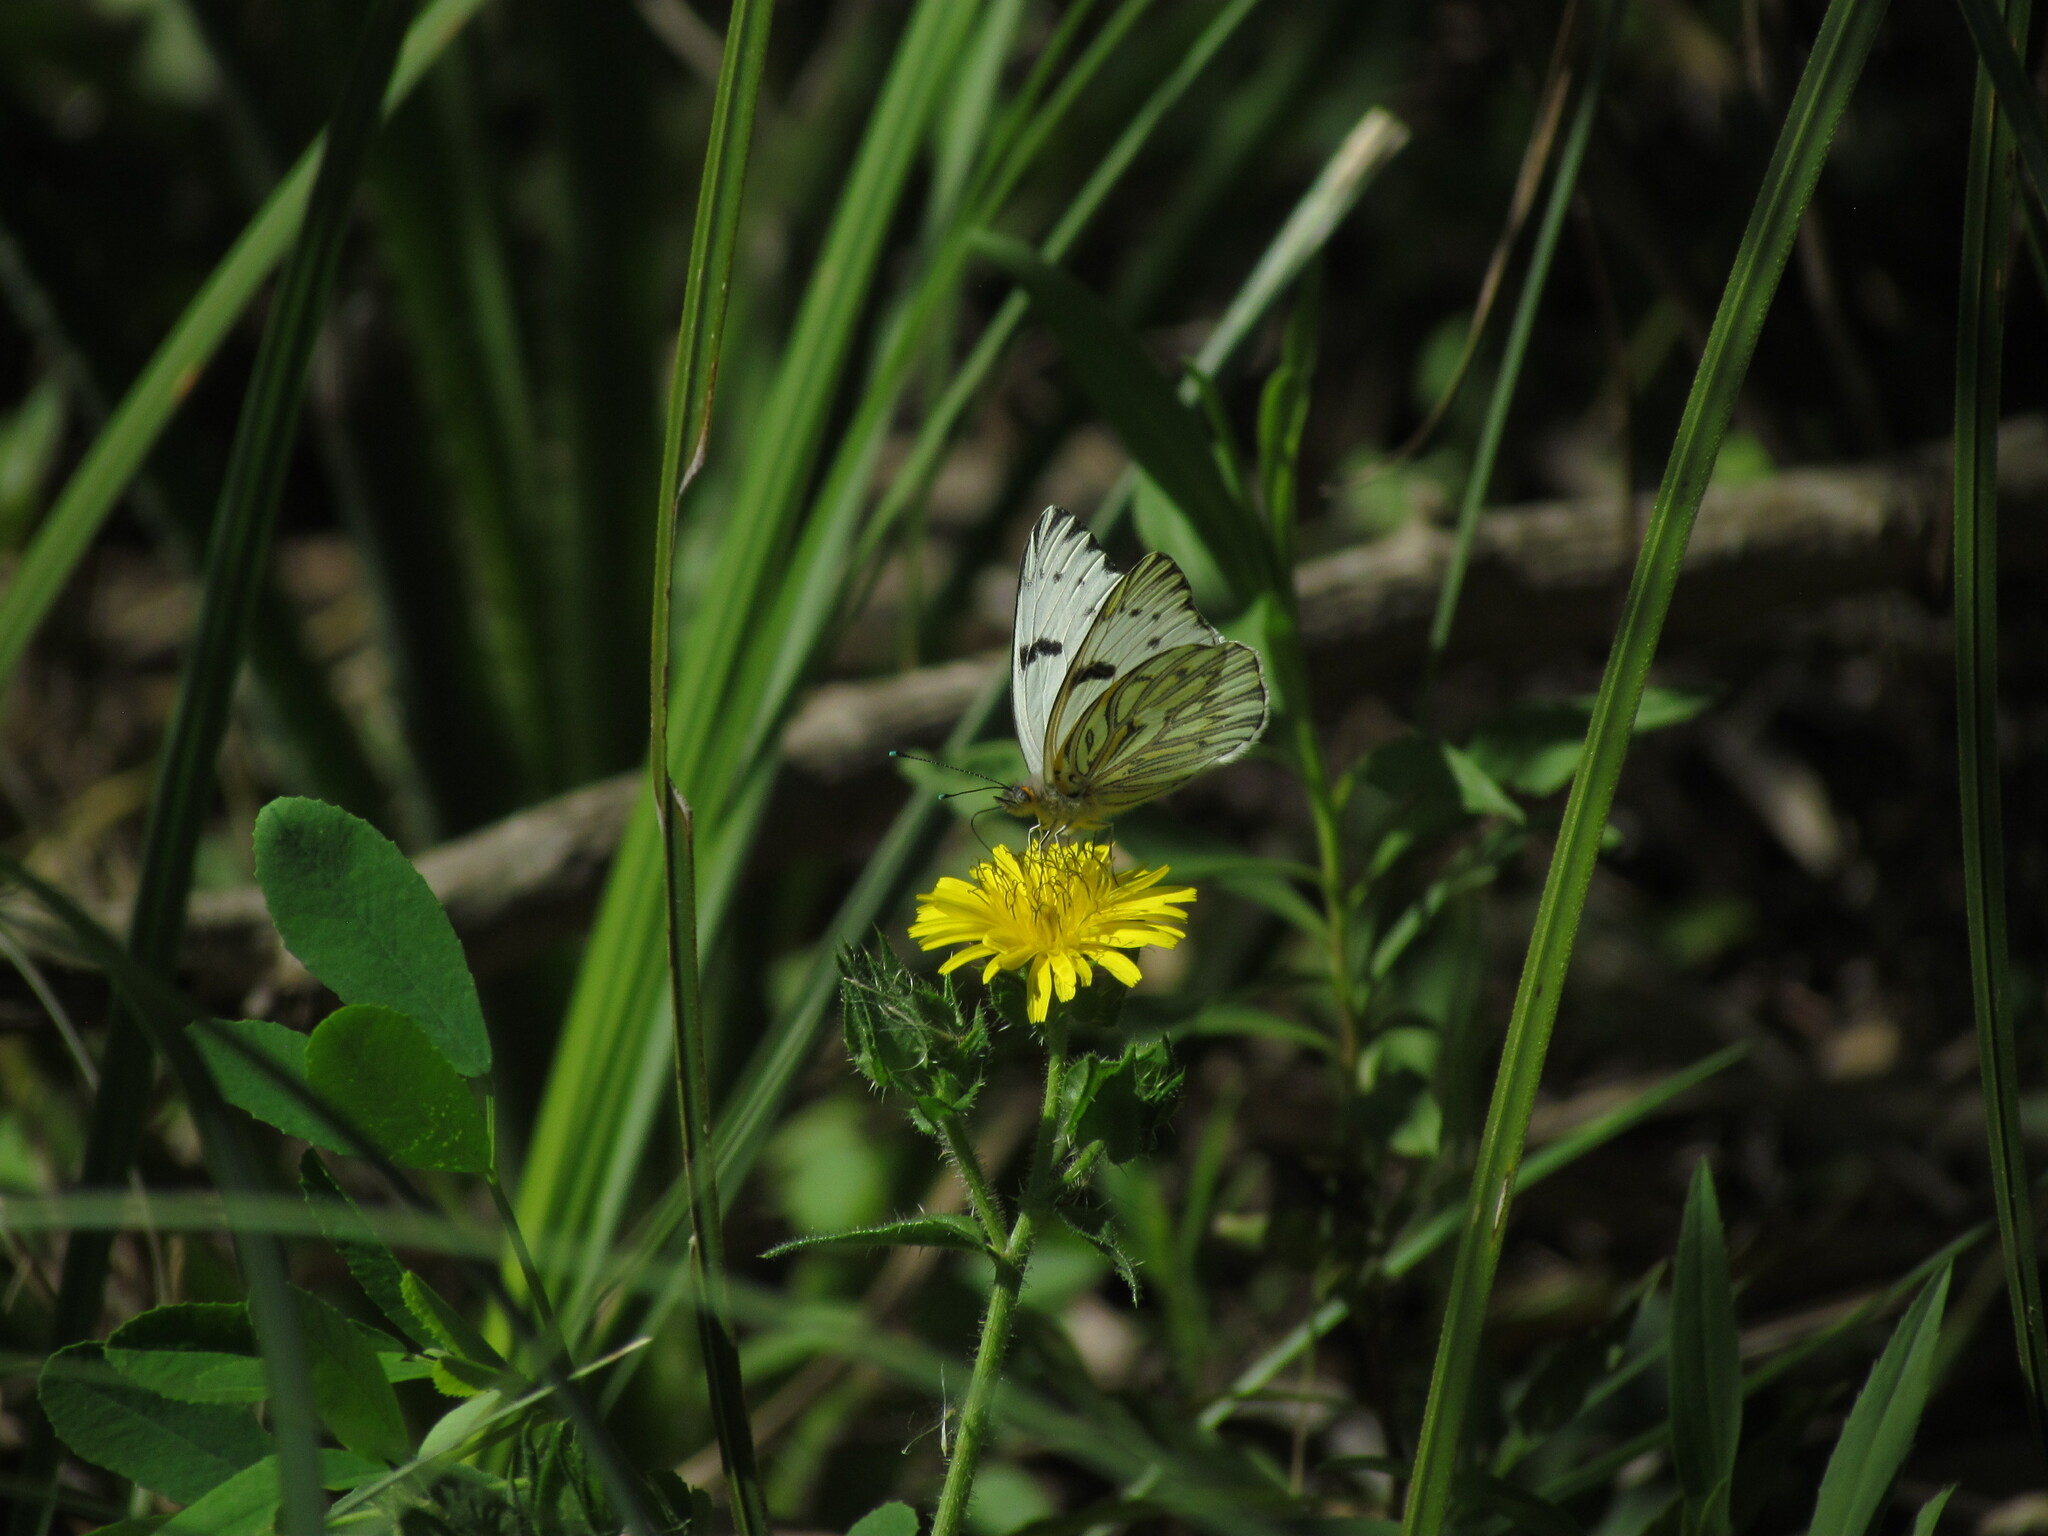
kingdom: Animalia
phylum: Arthropoda
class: Insecta
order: Lepidoptera
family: Pieridae
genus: Tatochila
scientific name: Tatochila autodice
